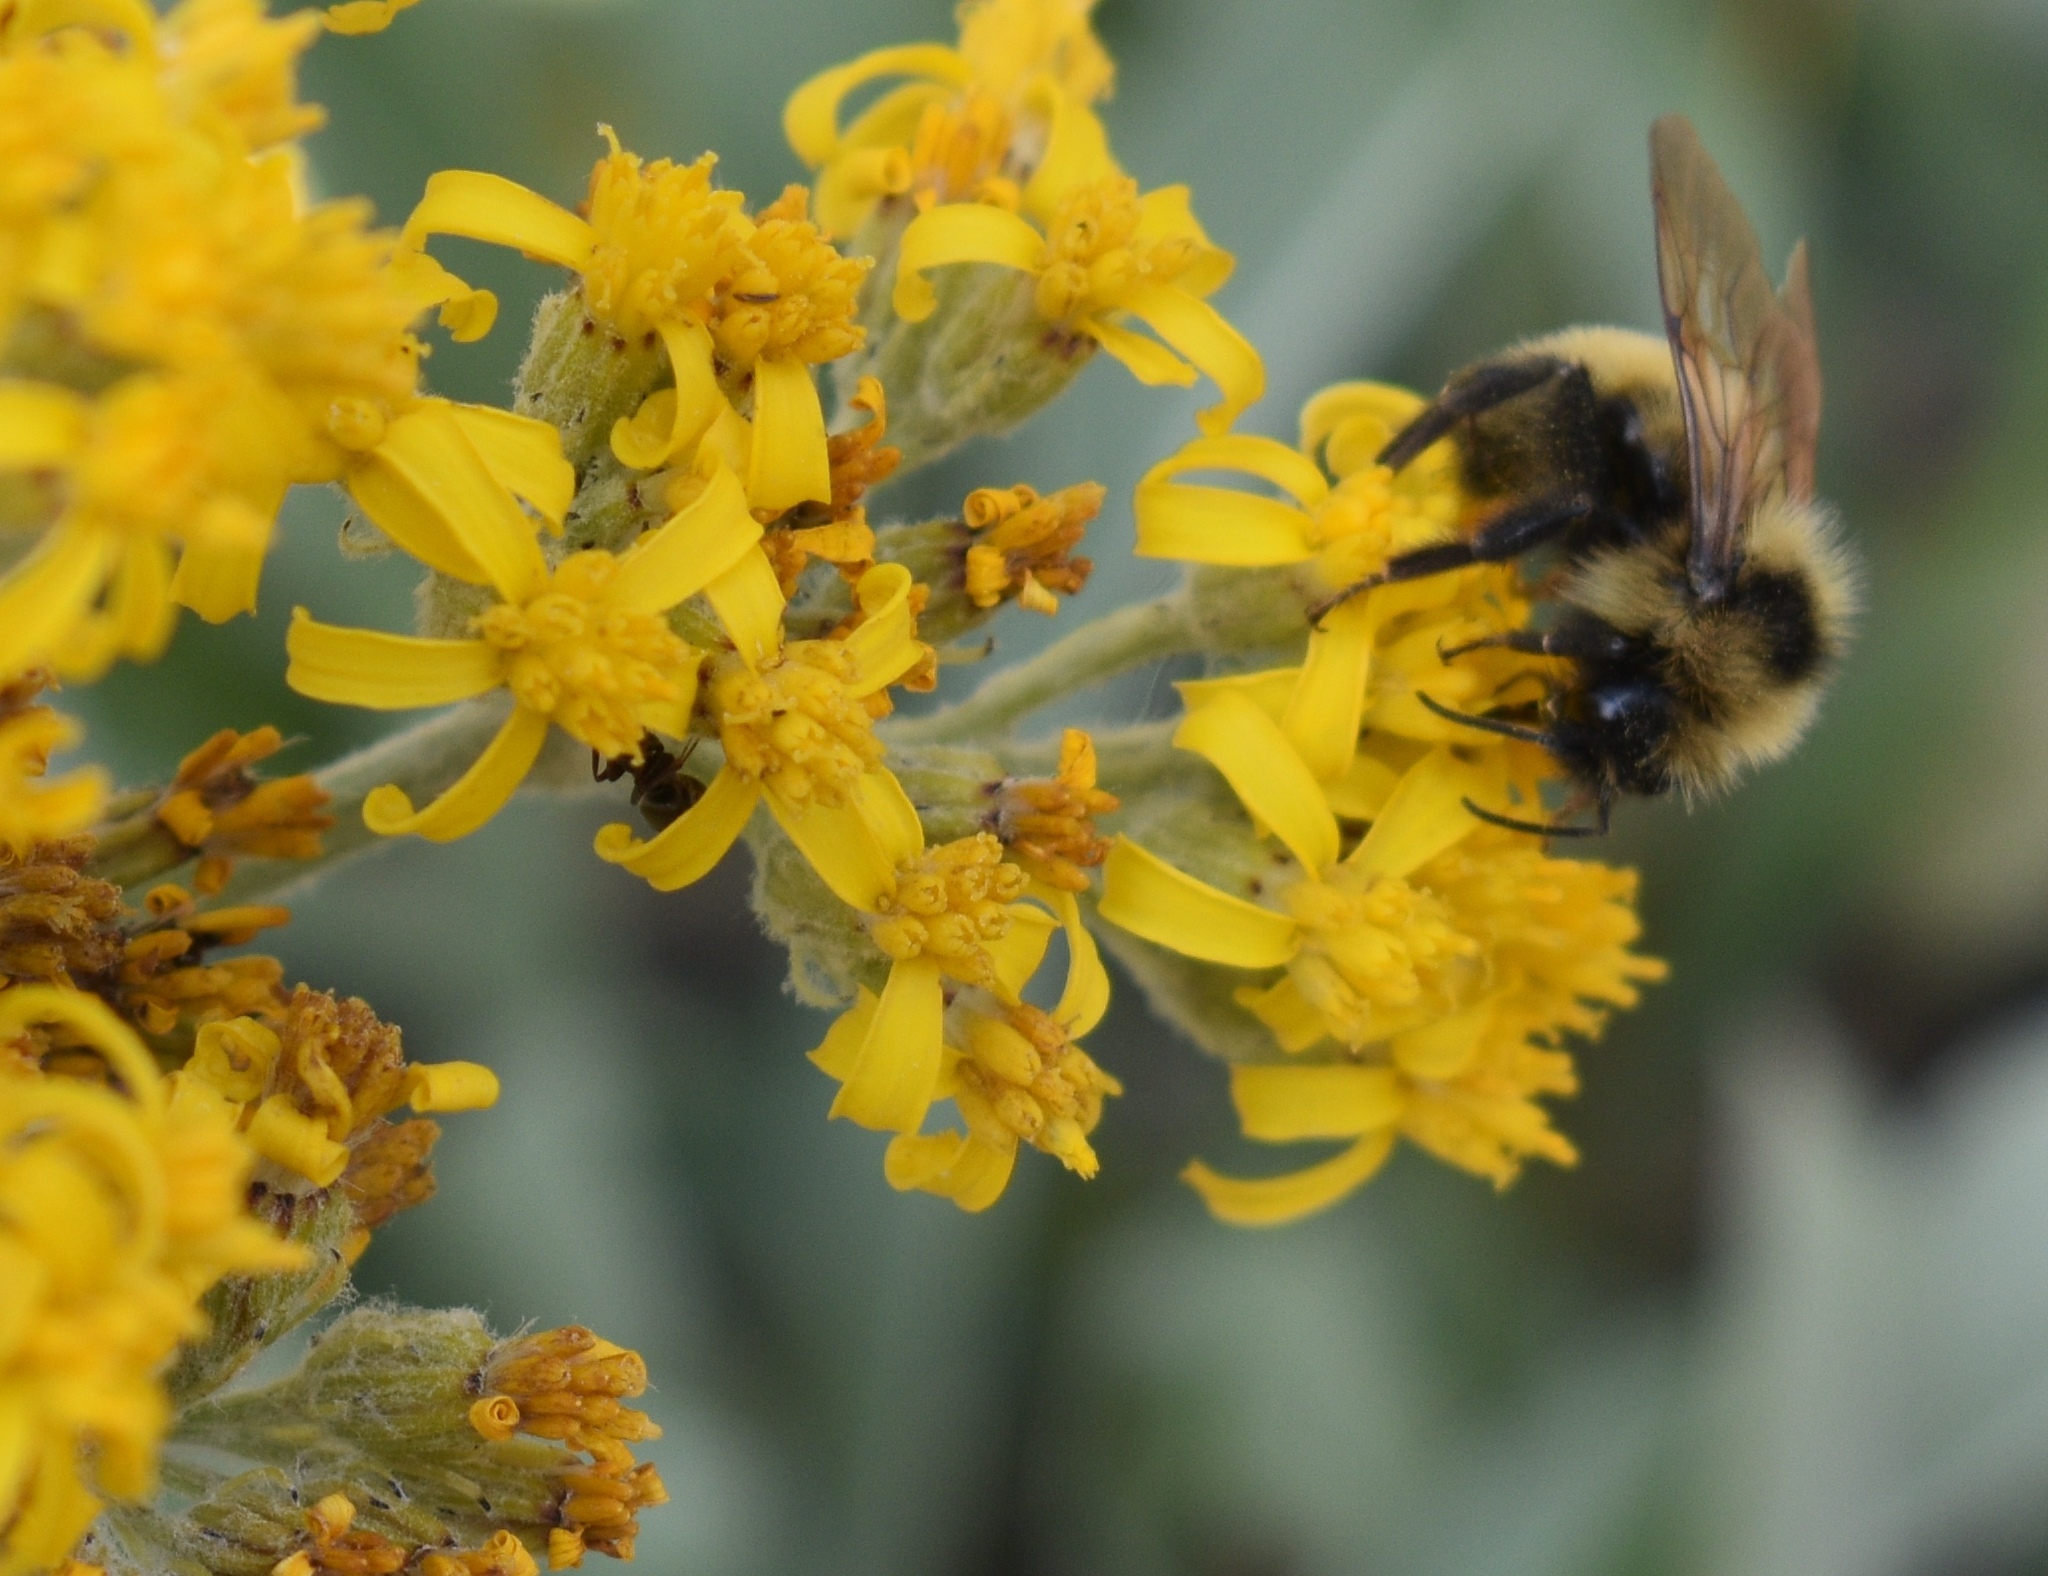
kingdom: Animalia
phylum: Arthropoda
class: Insecta
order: Hymenoptera
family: Apidae
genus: Bombus
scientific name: Bombus flavidus
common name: Fernald cuckoo bumble bee
